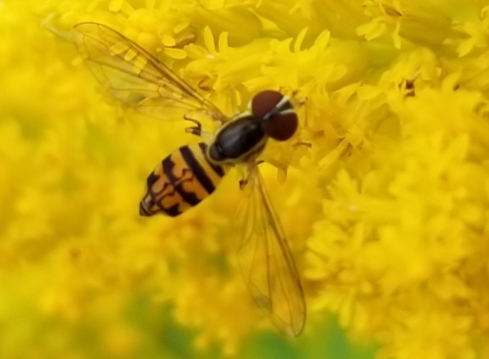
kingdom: Animalia
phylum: Arthropoda
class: Insecta
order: Diptera
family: Syrphidae
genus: Toxomerus
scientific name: Toxomerus geminatus
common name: Eastern calligrapher
